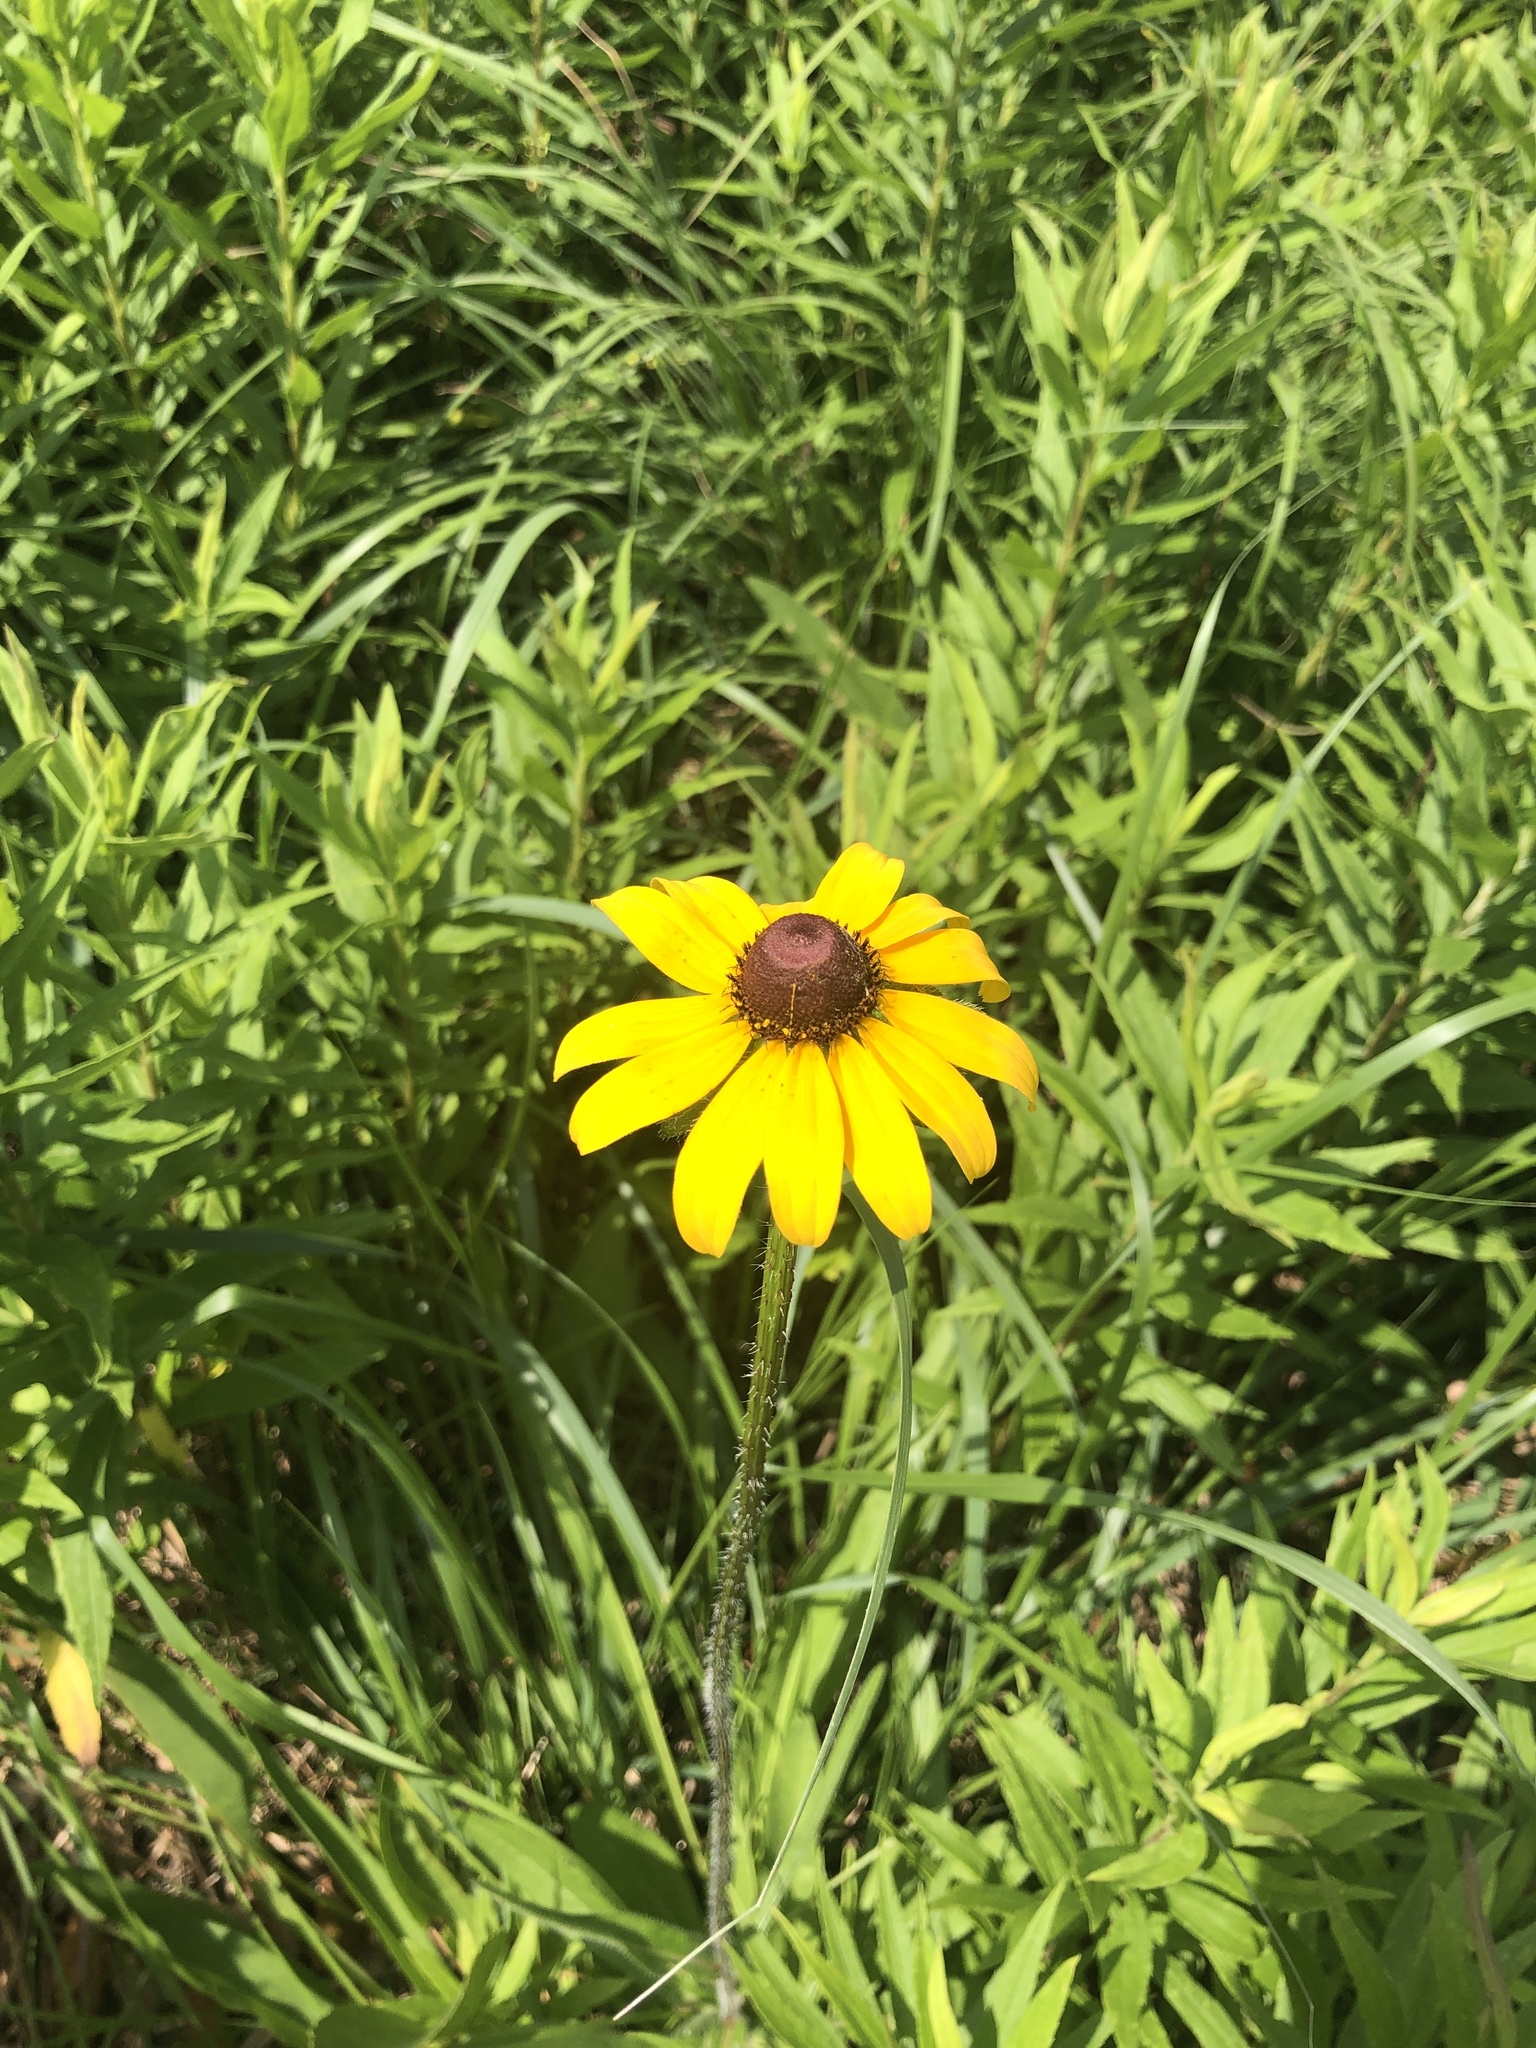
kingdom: Plantae
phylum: Tracheophyta
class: Magnoliopsida
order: Asterales
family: Asteraceae
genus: Rudbeckia
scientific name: Rudbeckia hirta
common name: Black-eyed-susan
